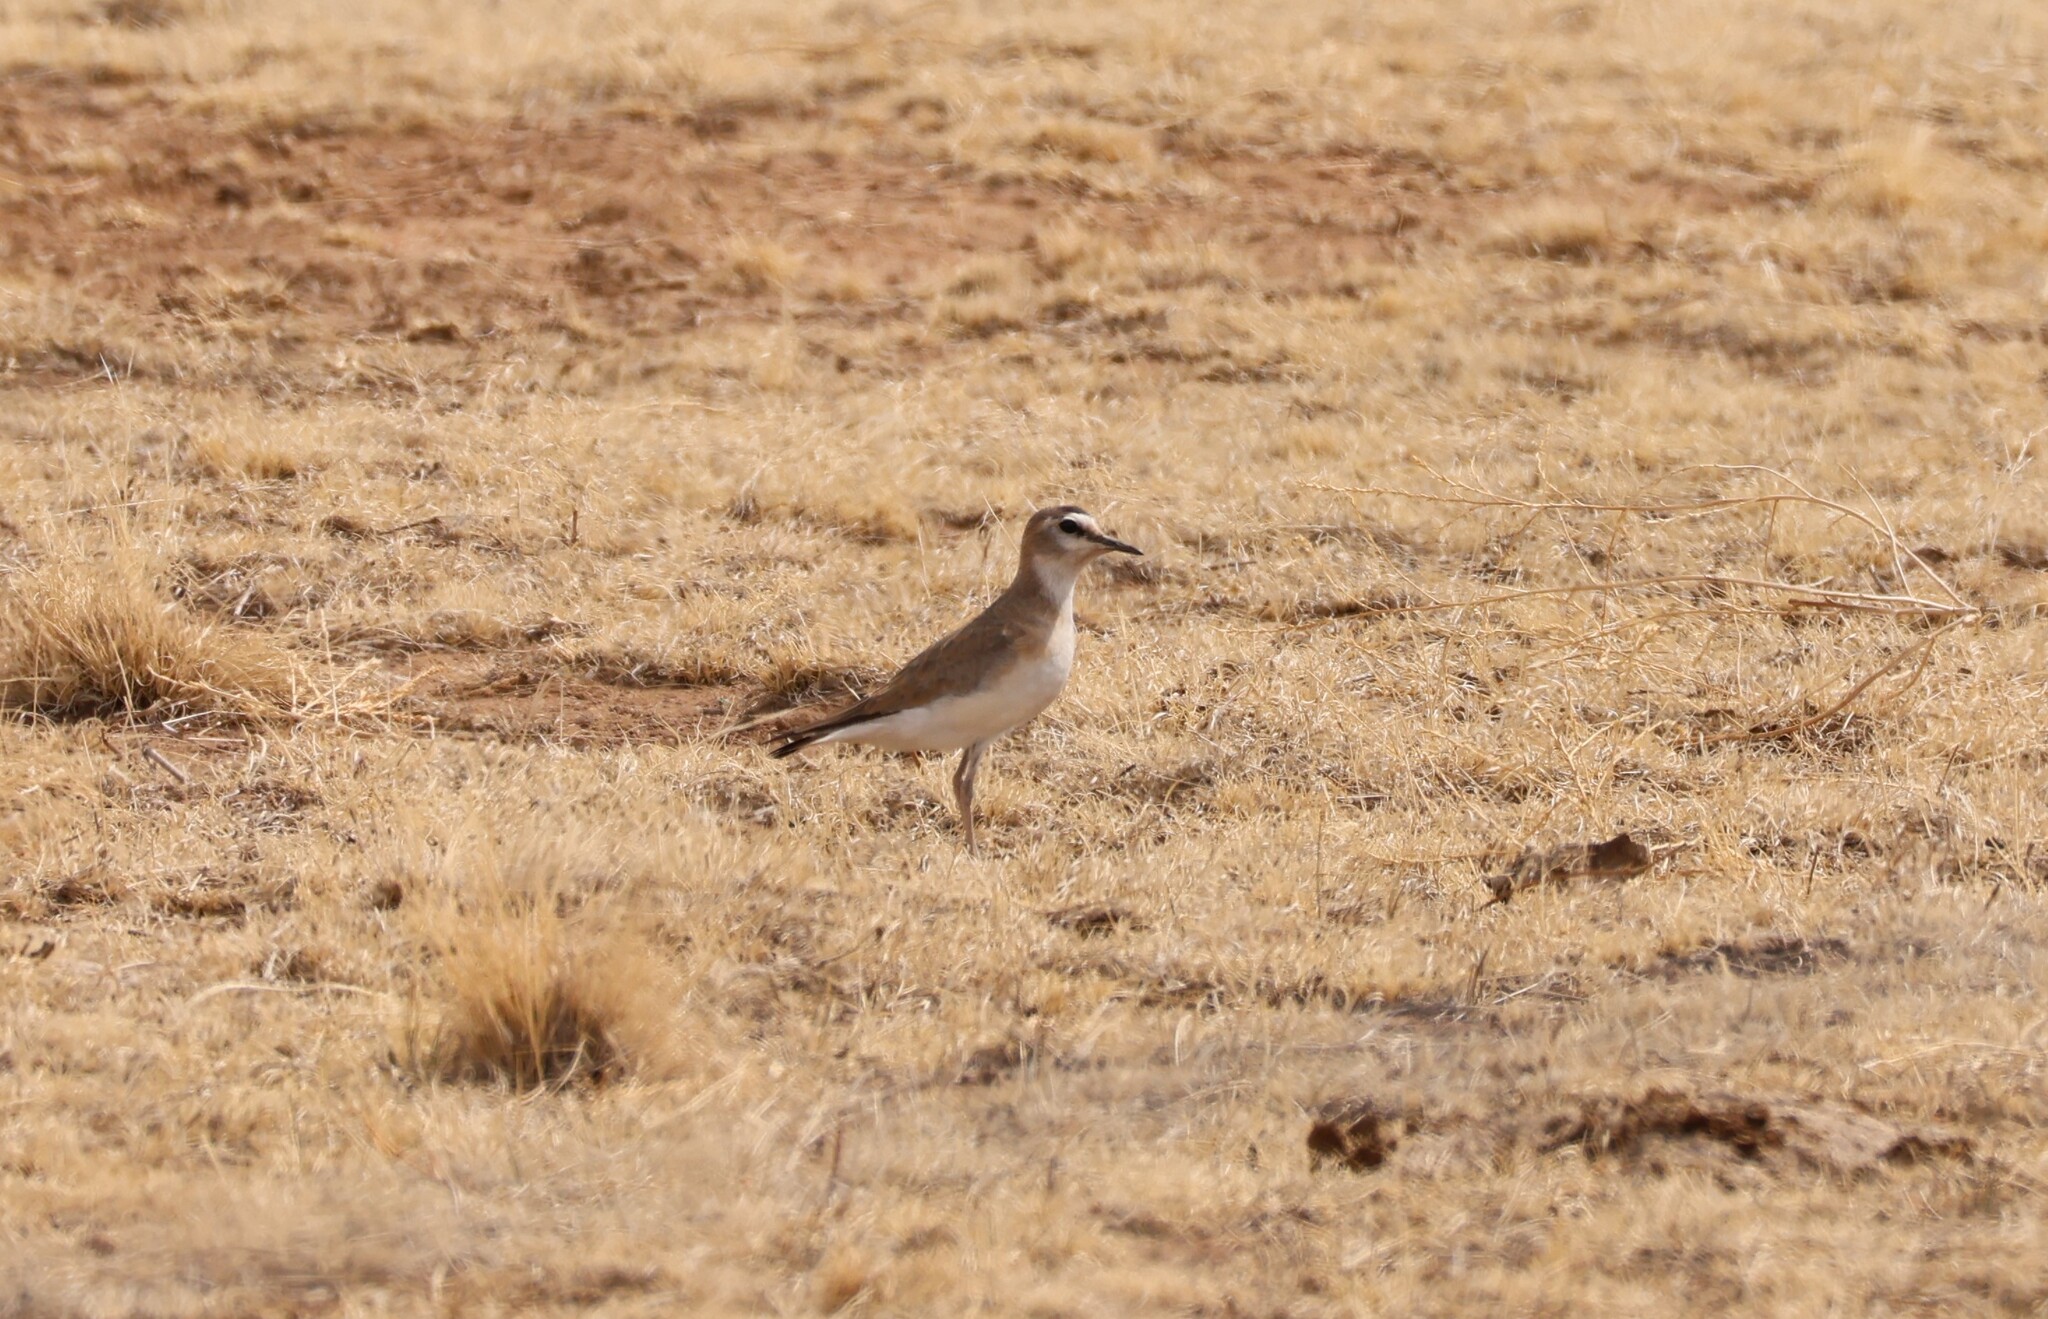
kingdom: Animalia
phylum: Chordata
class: Aves
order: Charadriiformes
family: Charadriidae
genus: Anarhynchus
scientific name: Anarhynchus
